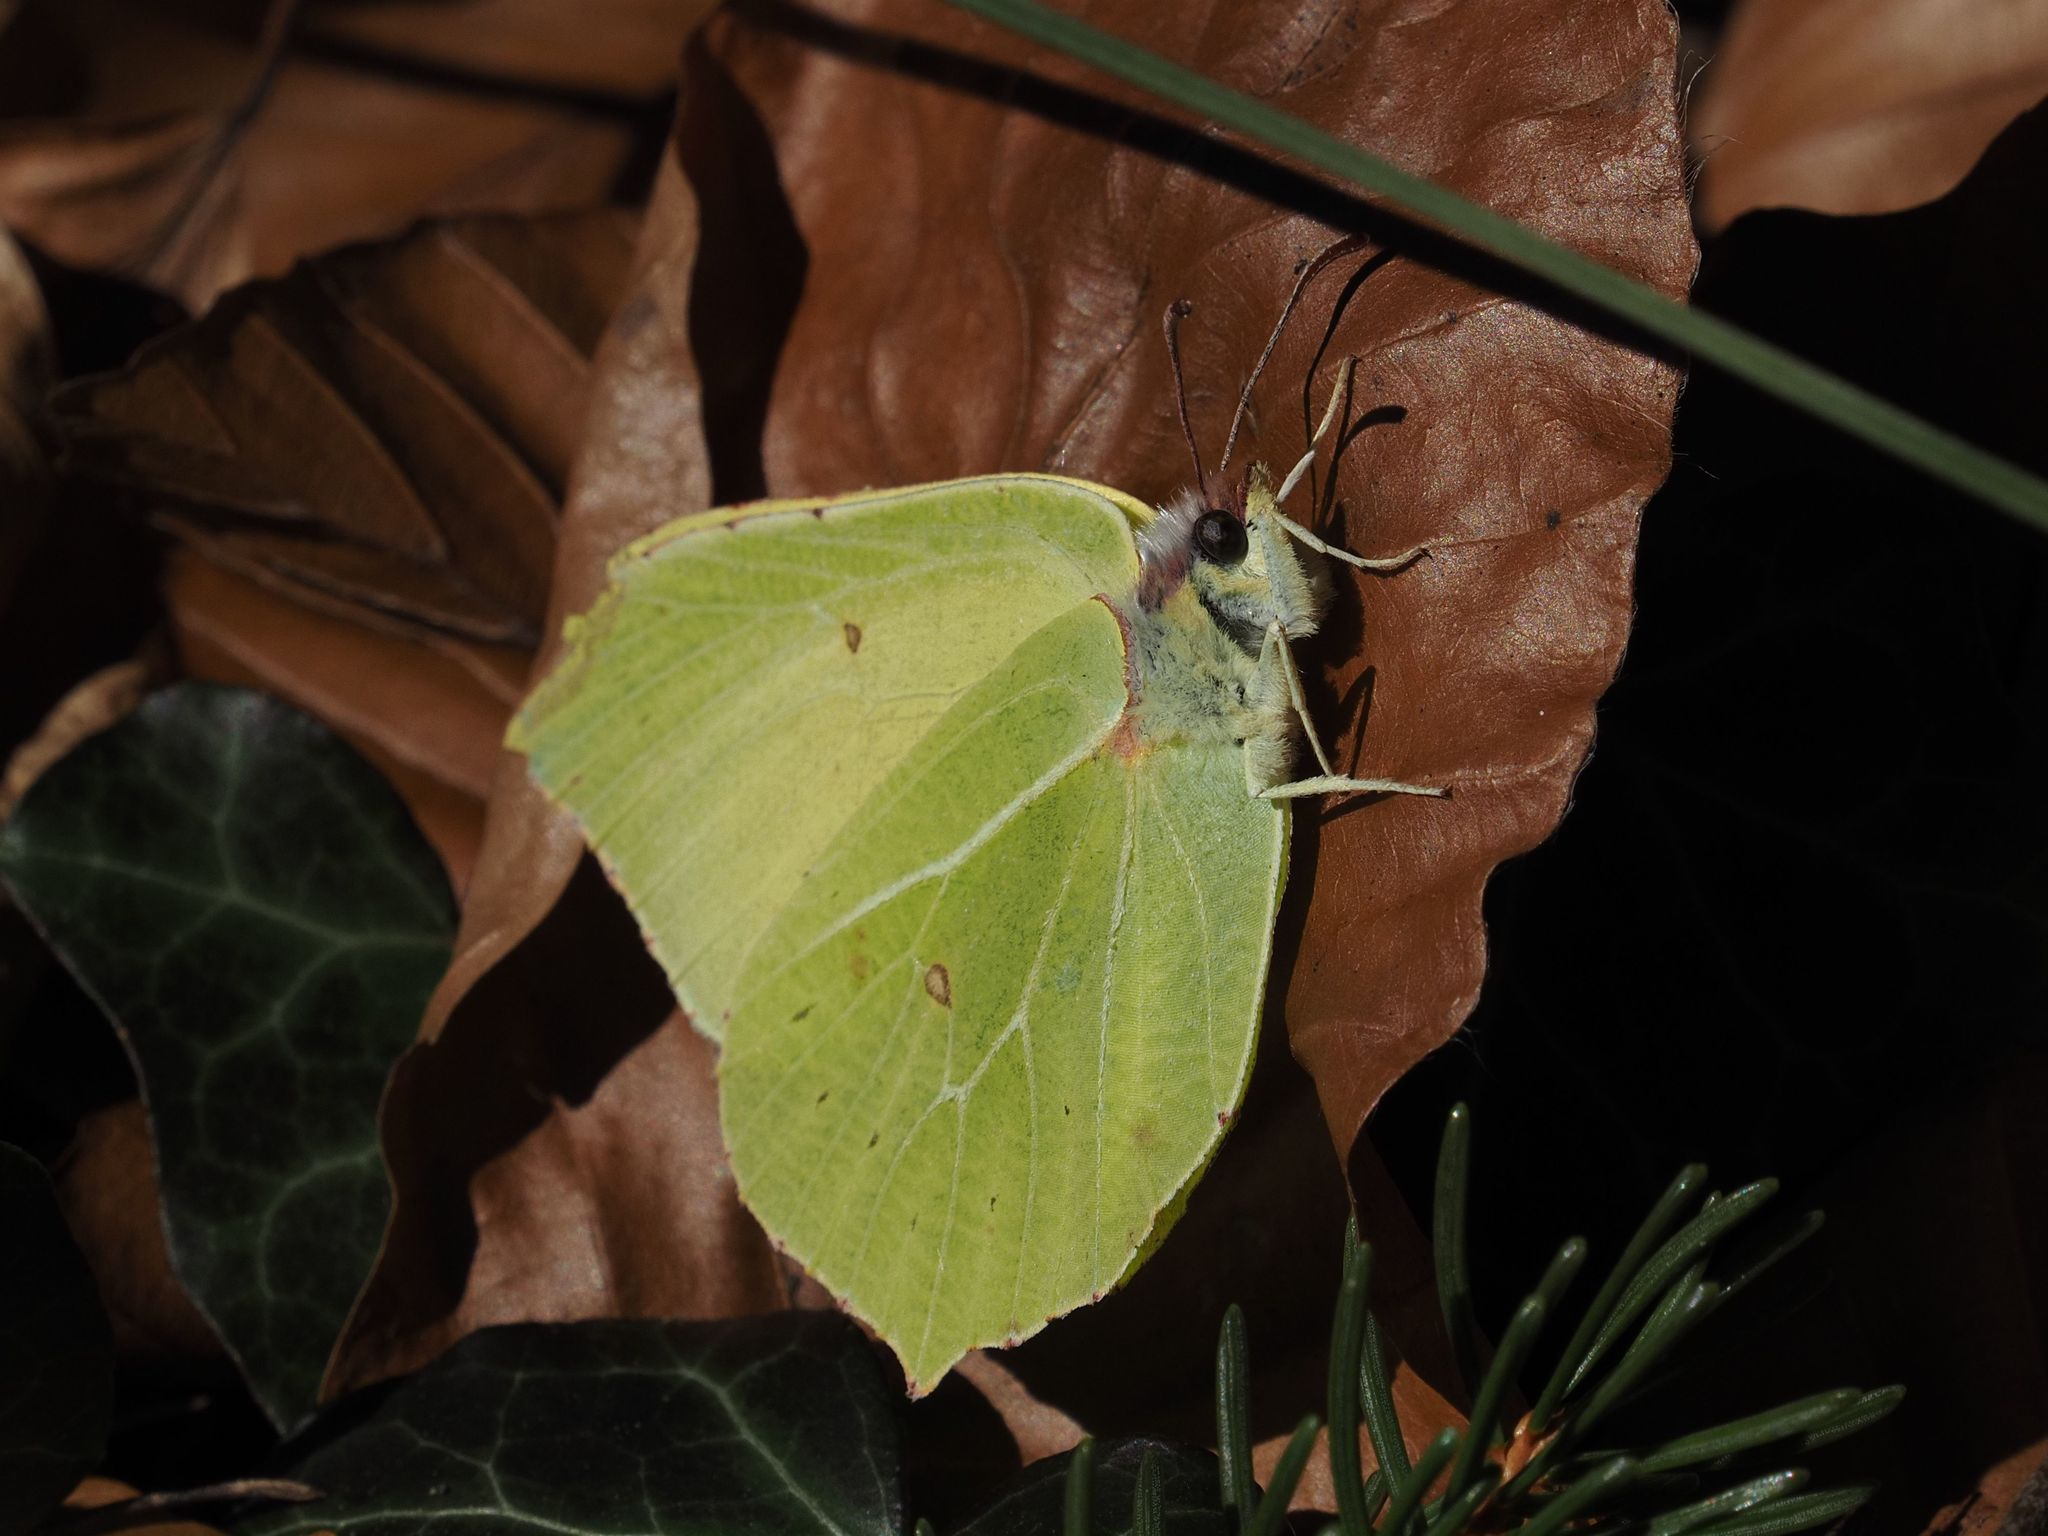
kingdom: Animalia
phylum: Arthropoda
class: Insecta
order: Lepidoptera
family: Pieridae
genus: Gonepteryx
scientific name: Gonepteryx rhamni
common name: Brimstone
